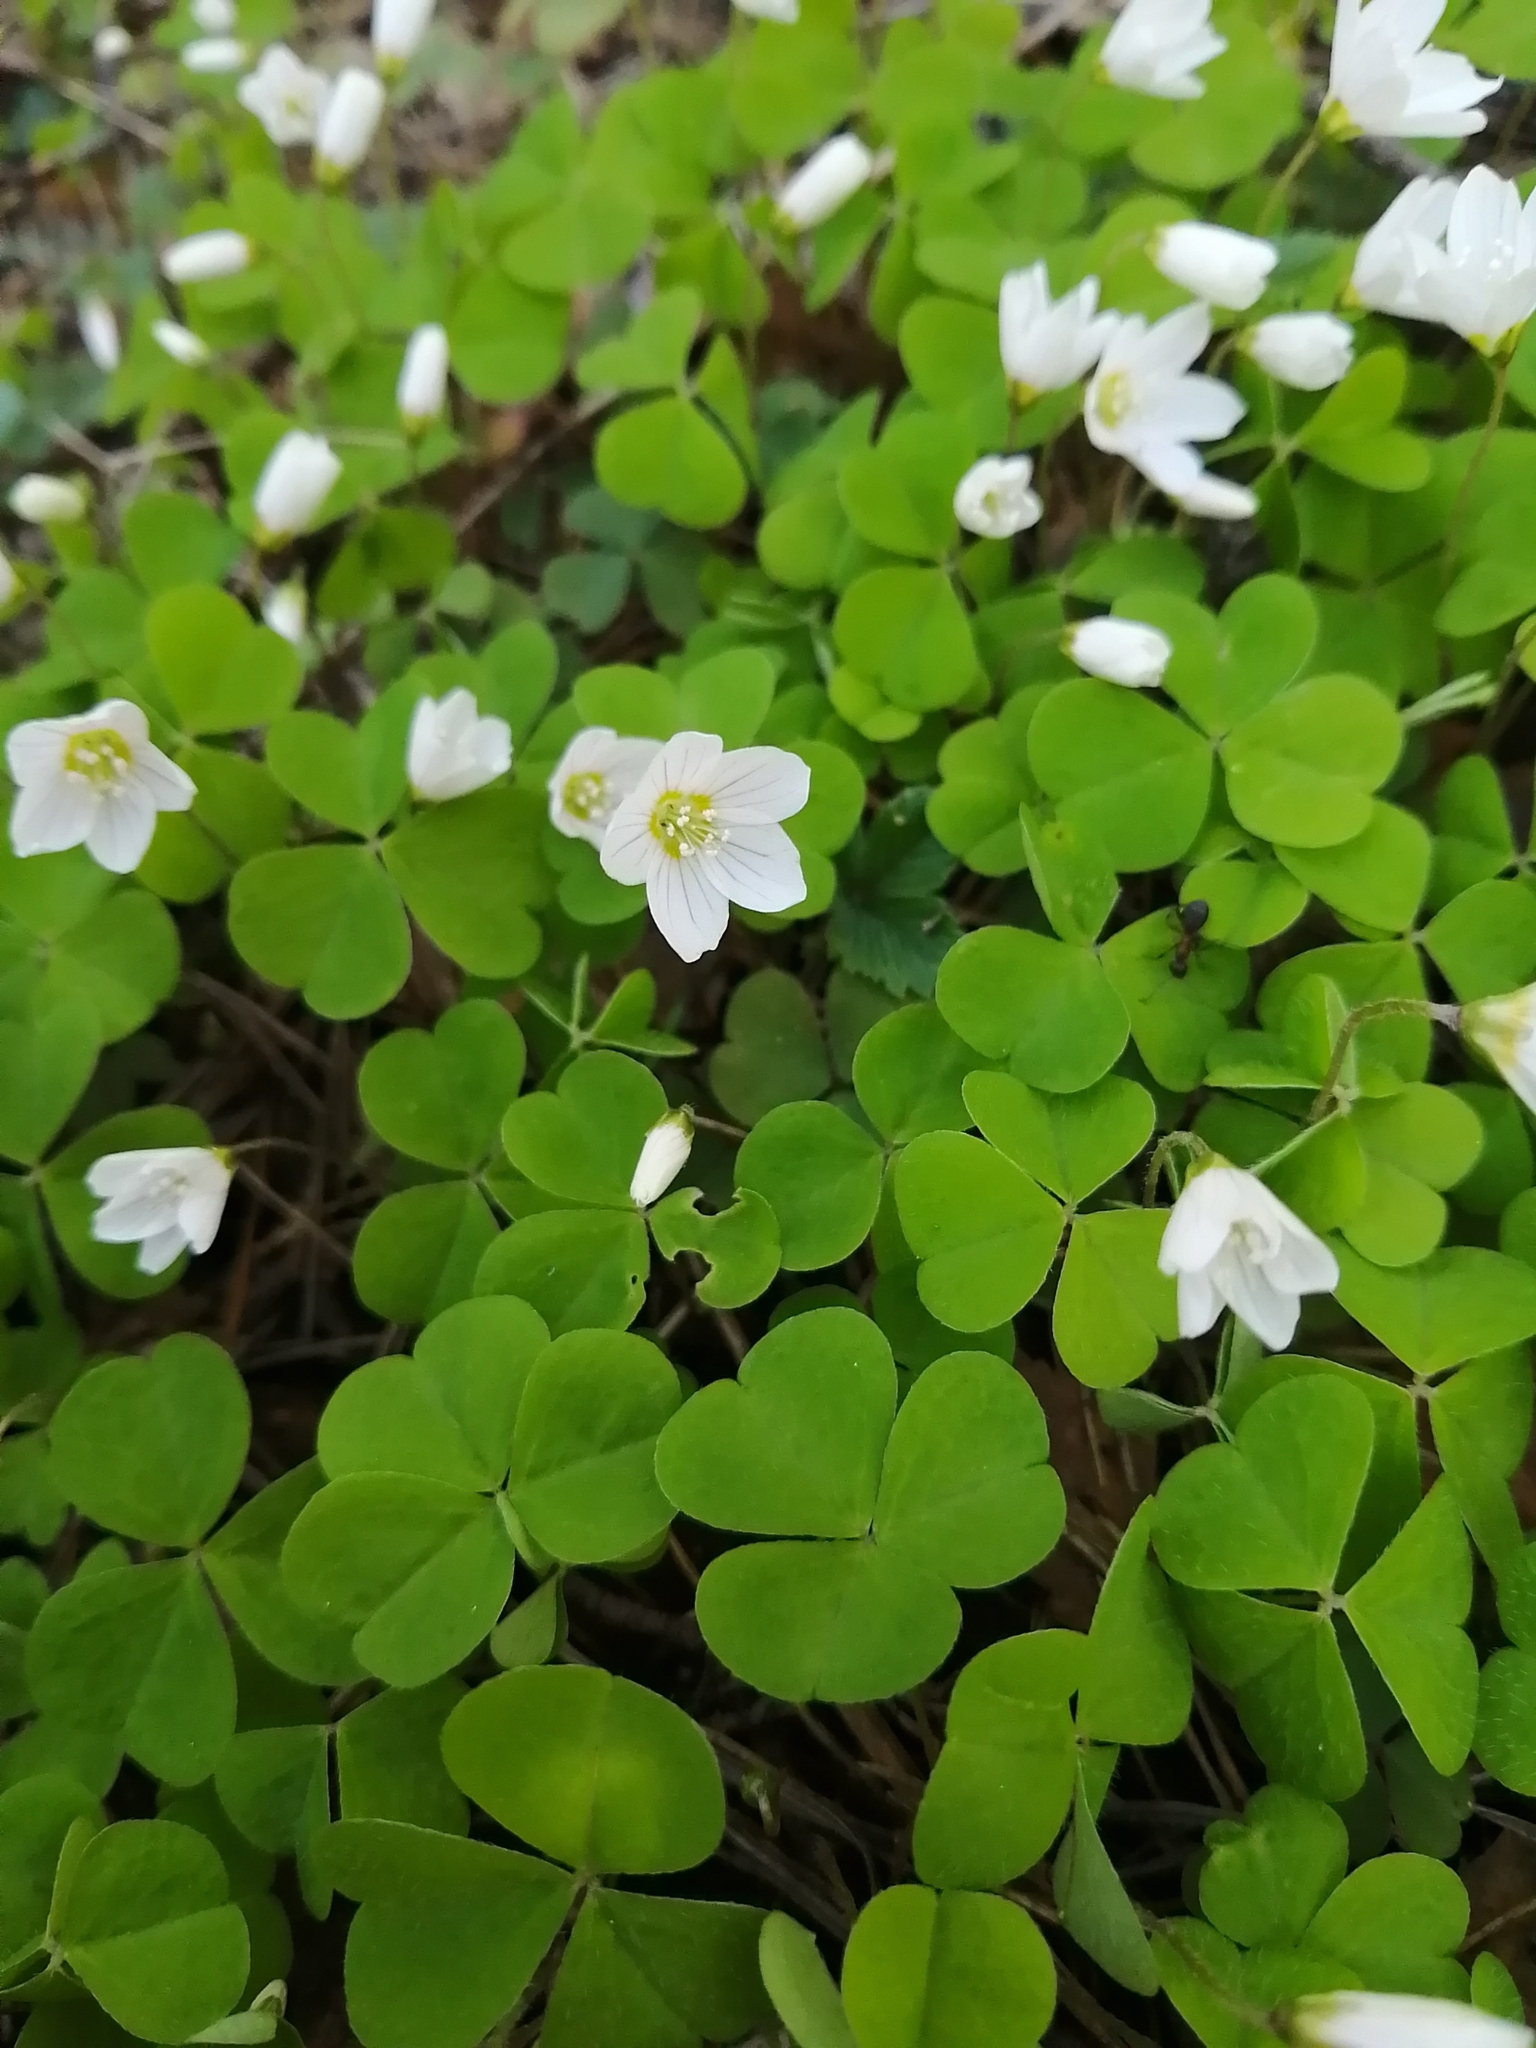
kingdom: Plantae
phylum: Tracheophyta
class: Magnoliopsida
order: Oxalidales
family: Oxalidaceae
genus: Oxalis
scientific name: Oxalis acetosella
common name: Wood-sorrel
